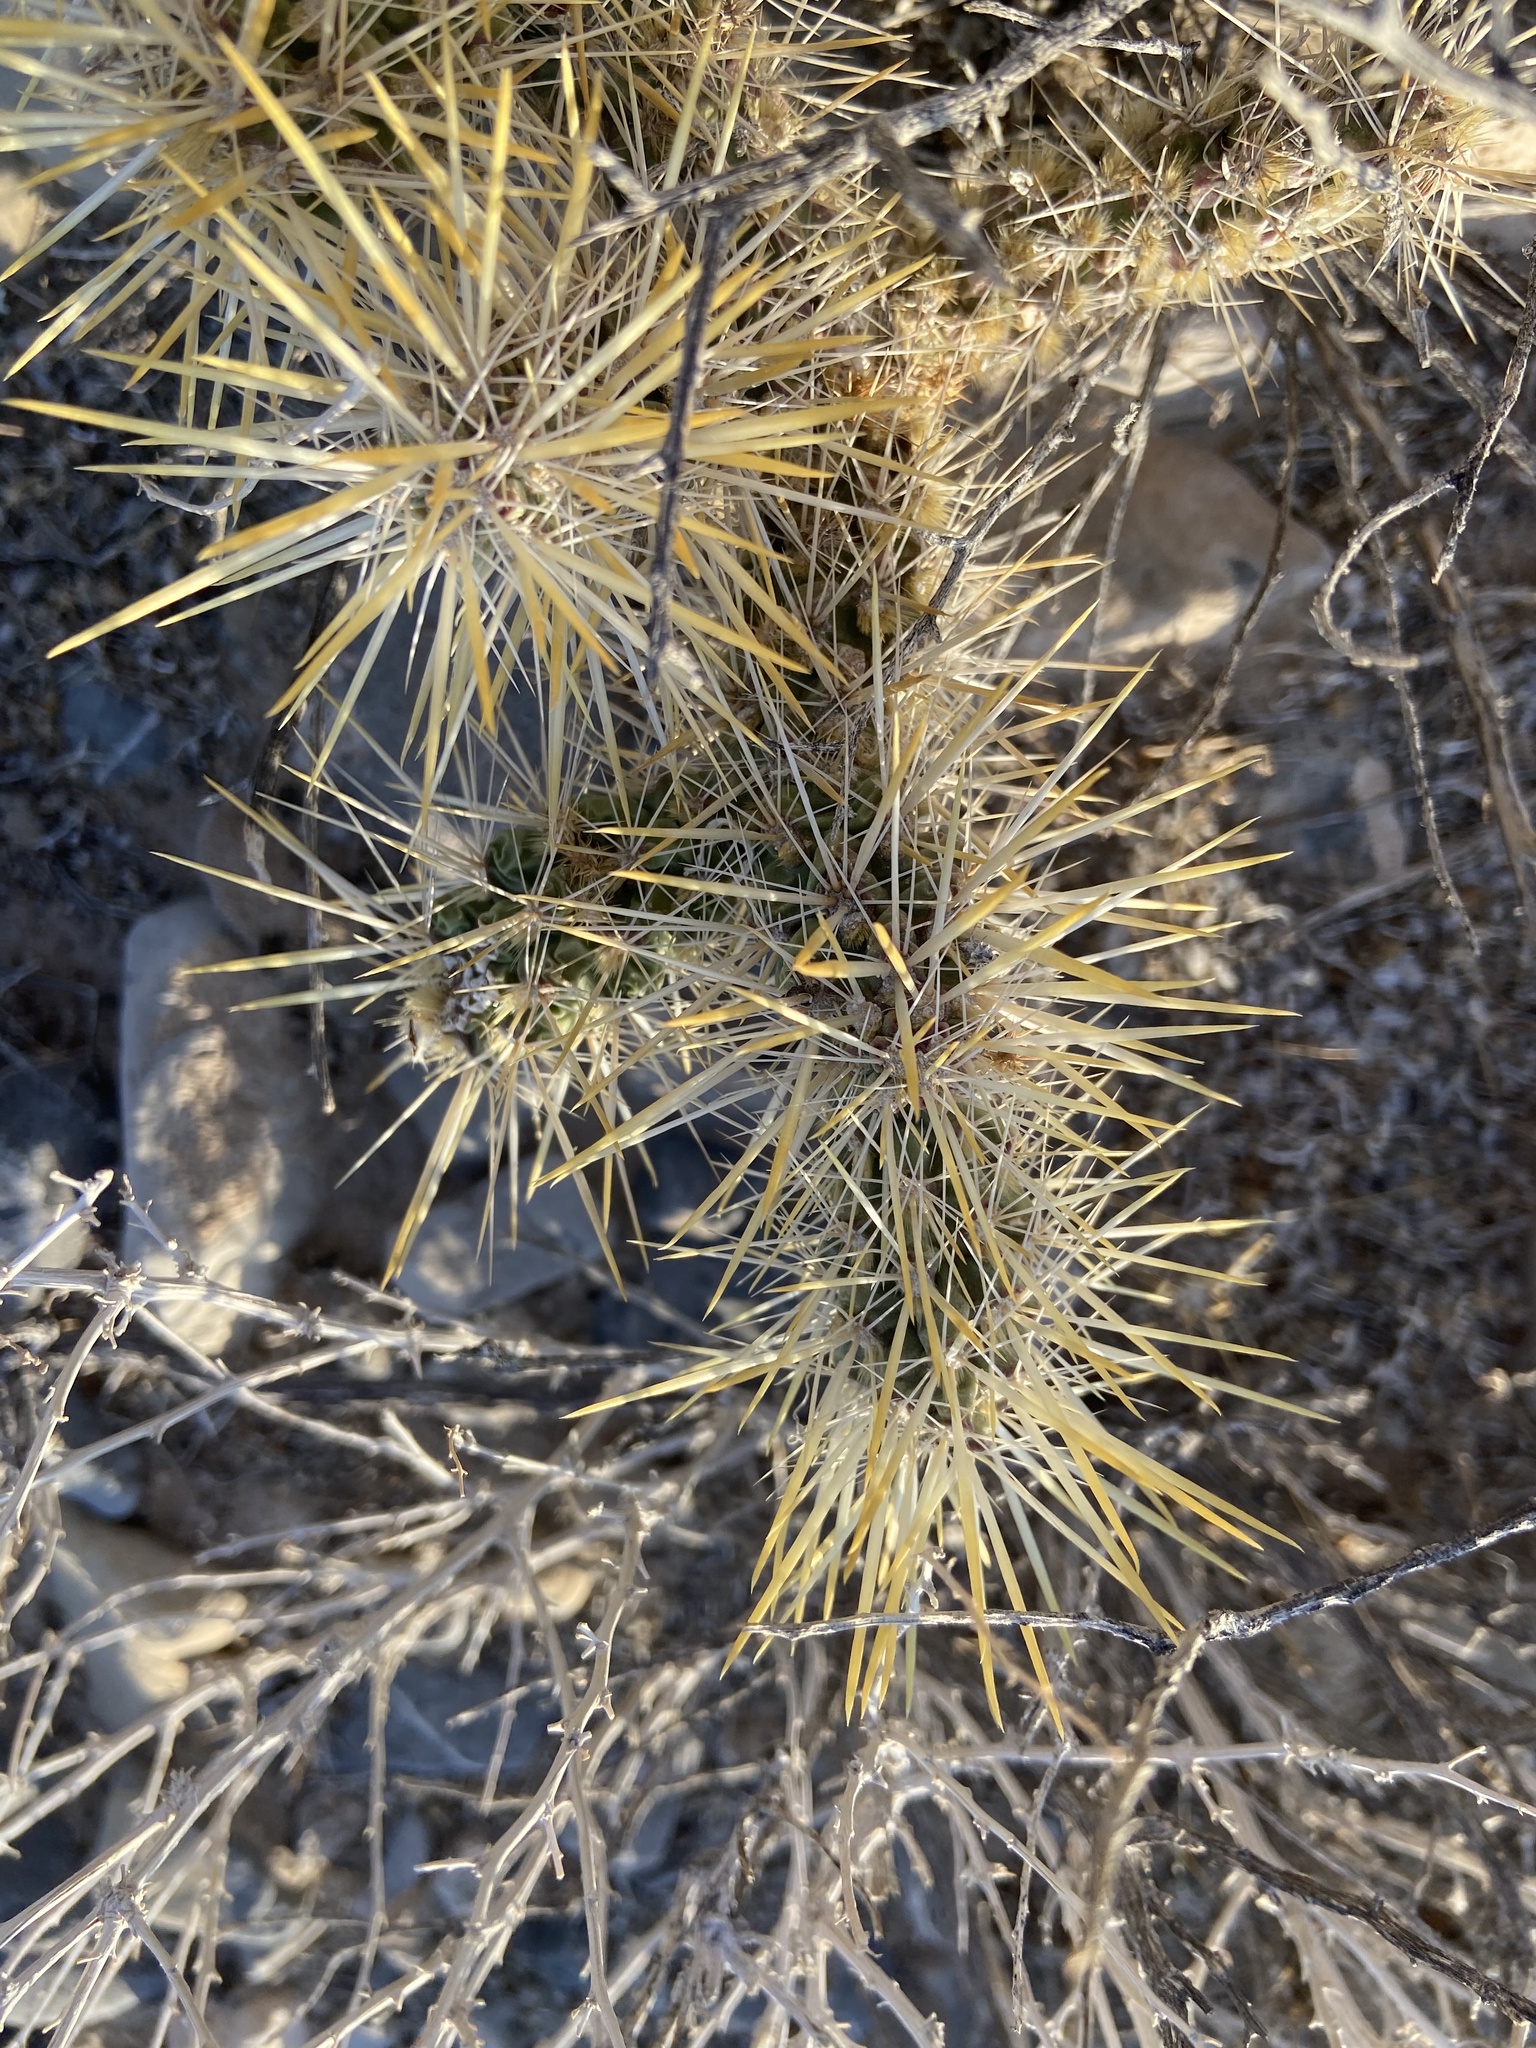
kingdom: Plantae
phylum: Tracheophyta
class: Magnoliopsida
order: Caryophyllales
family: Cactaceae
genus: Cylindropuntia
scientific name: Cylindropuntia echinocarpa
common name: Ground cholla
